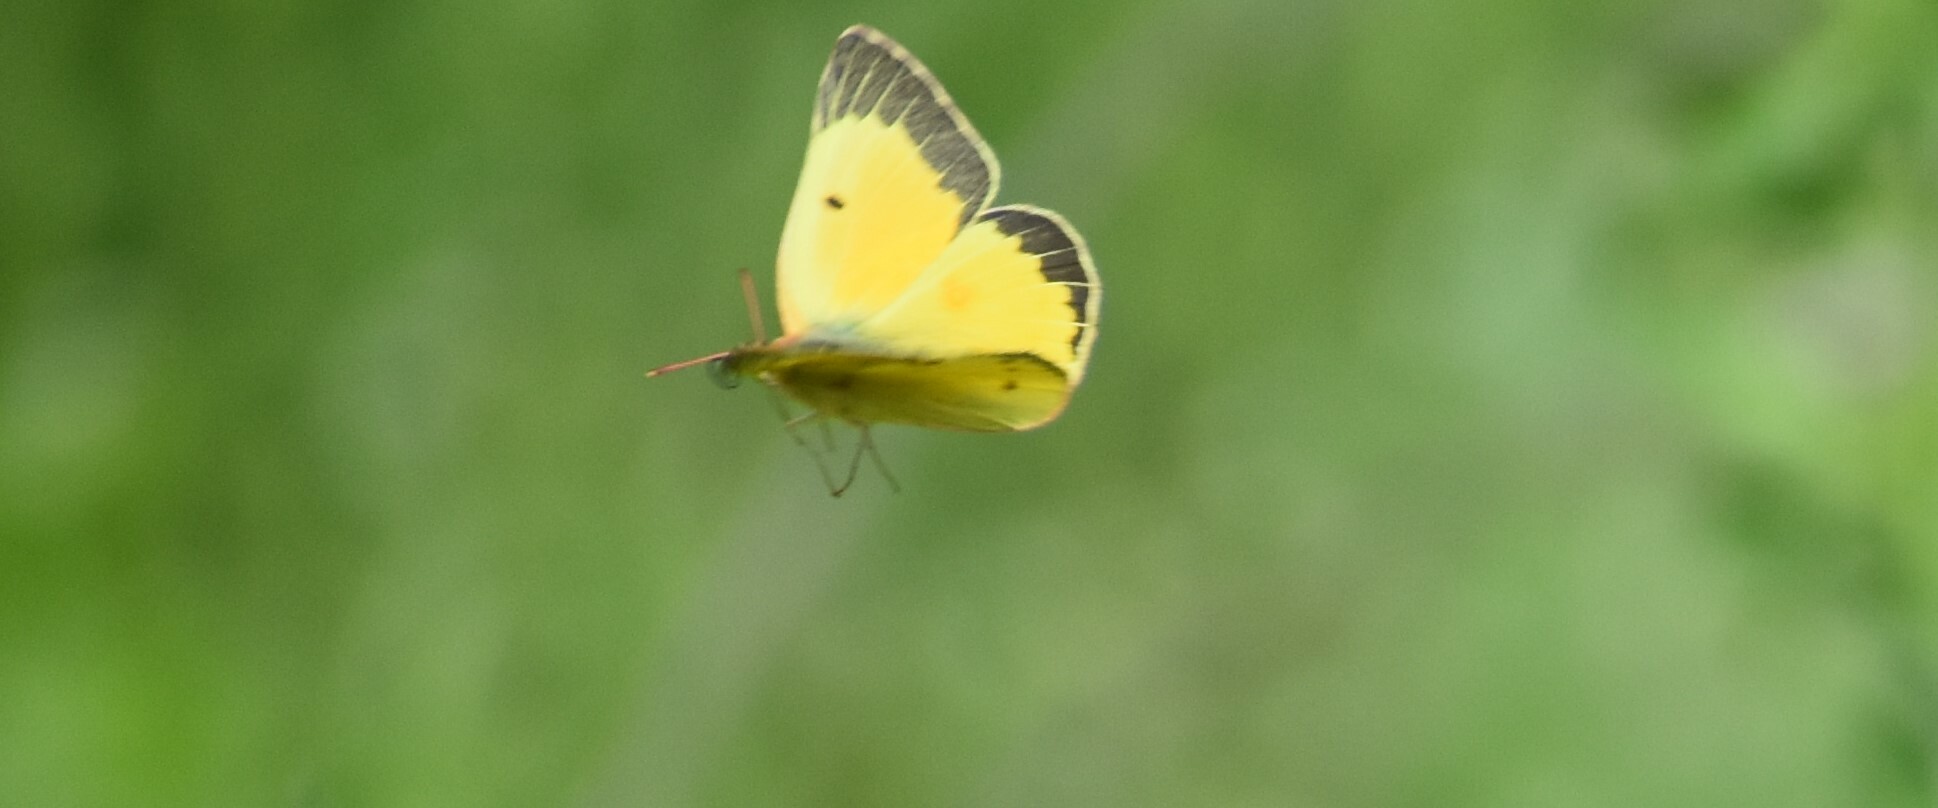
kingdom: Animalia
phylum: Arthropoda
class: Insecta
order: Lepidoptera
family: Pieridae
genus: Colias
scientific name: Colias eurytheme
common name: Alfalfa butterfly
